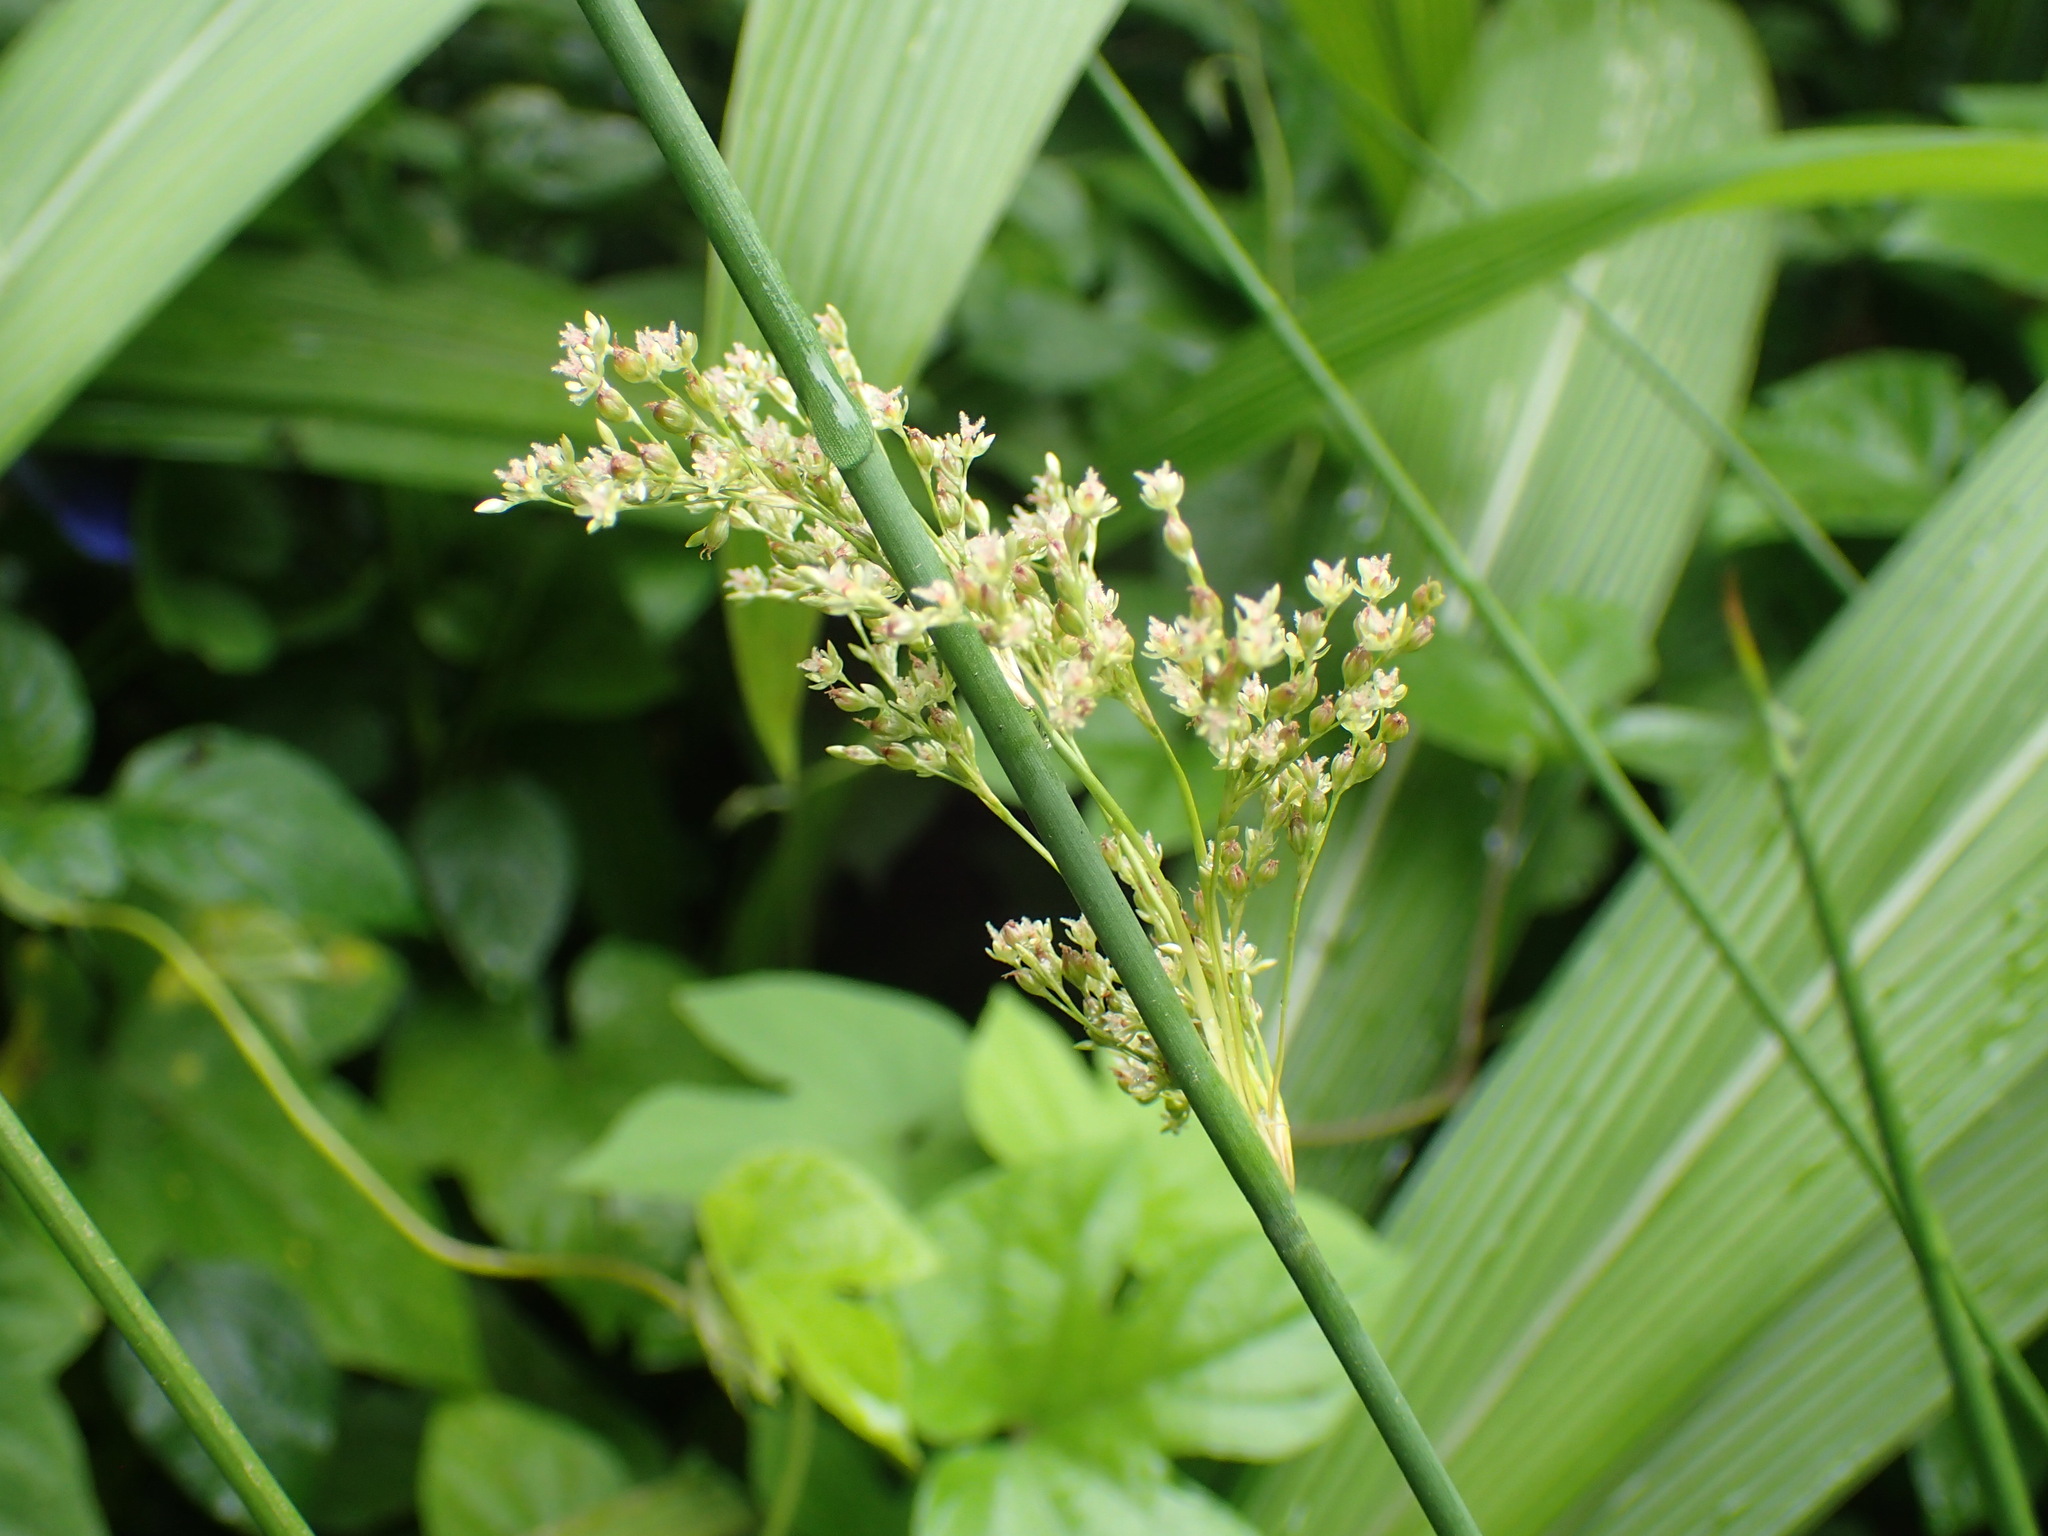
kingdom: Plantae
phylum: Tracheophyta
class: Liliopsida
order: Poales
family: Juncaceae
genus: Juncus
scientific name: Juncus effusus
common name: Soft rush
